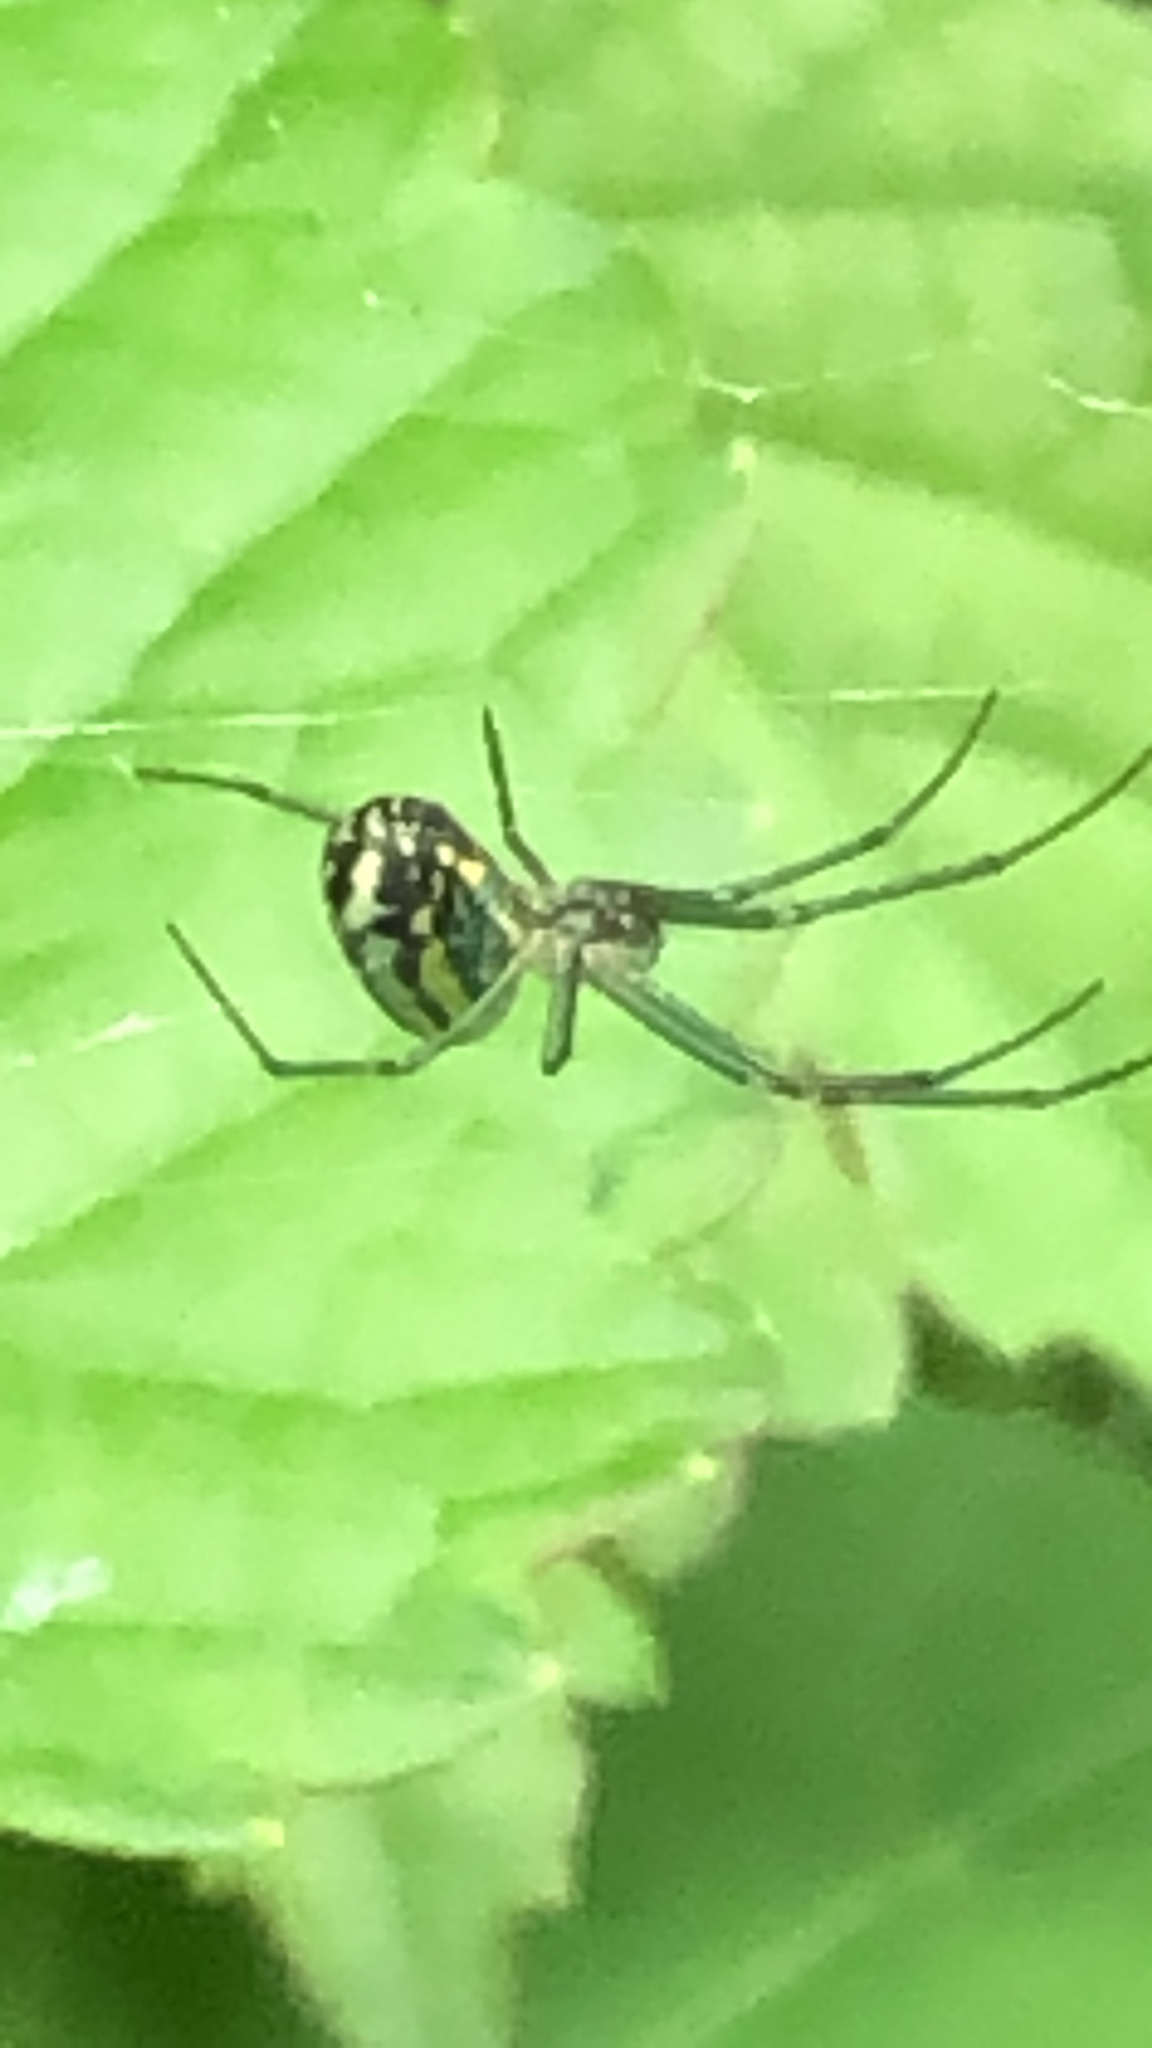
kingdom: Animalia
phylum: Arthropoda
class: Arachnida
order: Araneae
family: Tetragnathidae
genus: Leucauge
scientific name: Leucauge venusta
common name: Longjawed orb weavers
